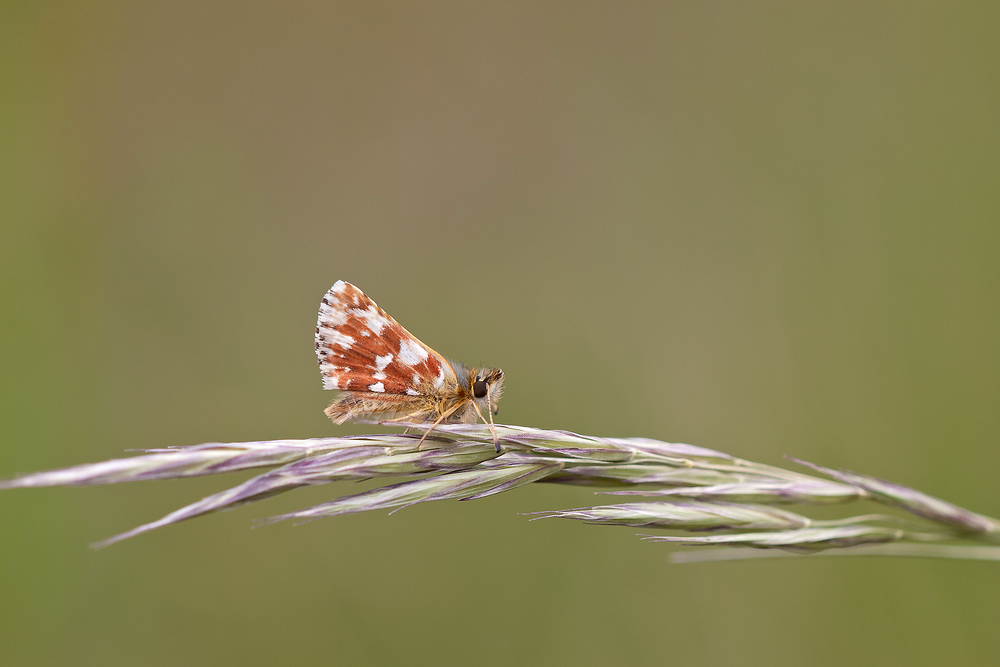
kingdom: Animalia
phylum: Arthropoda
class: Insecta
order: Lepidoptera
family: Hesperiidae
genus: Spialia
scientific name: Spialia sertorius
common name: Red underwing skipper
